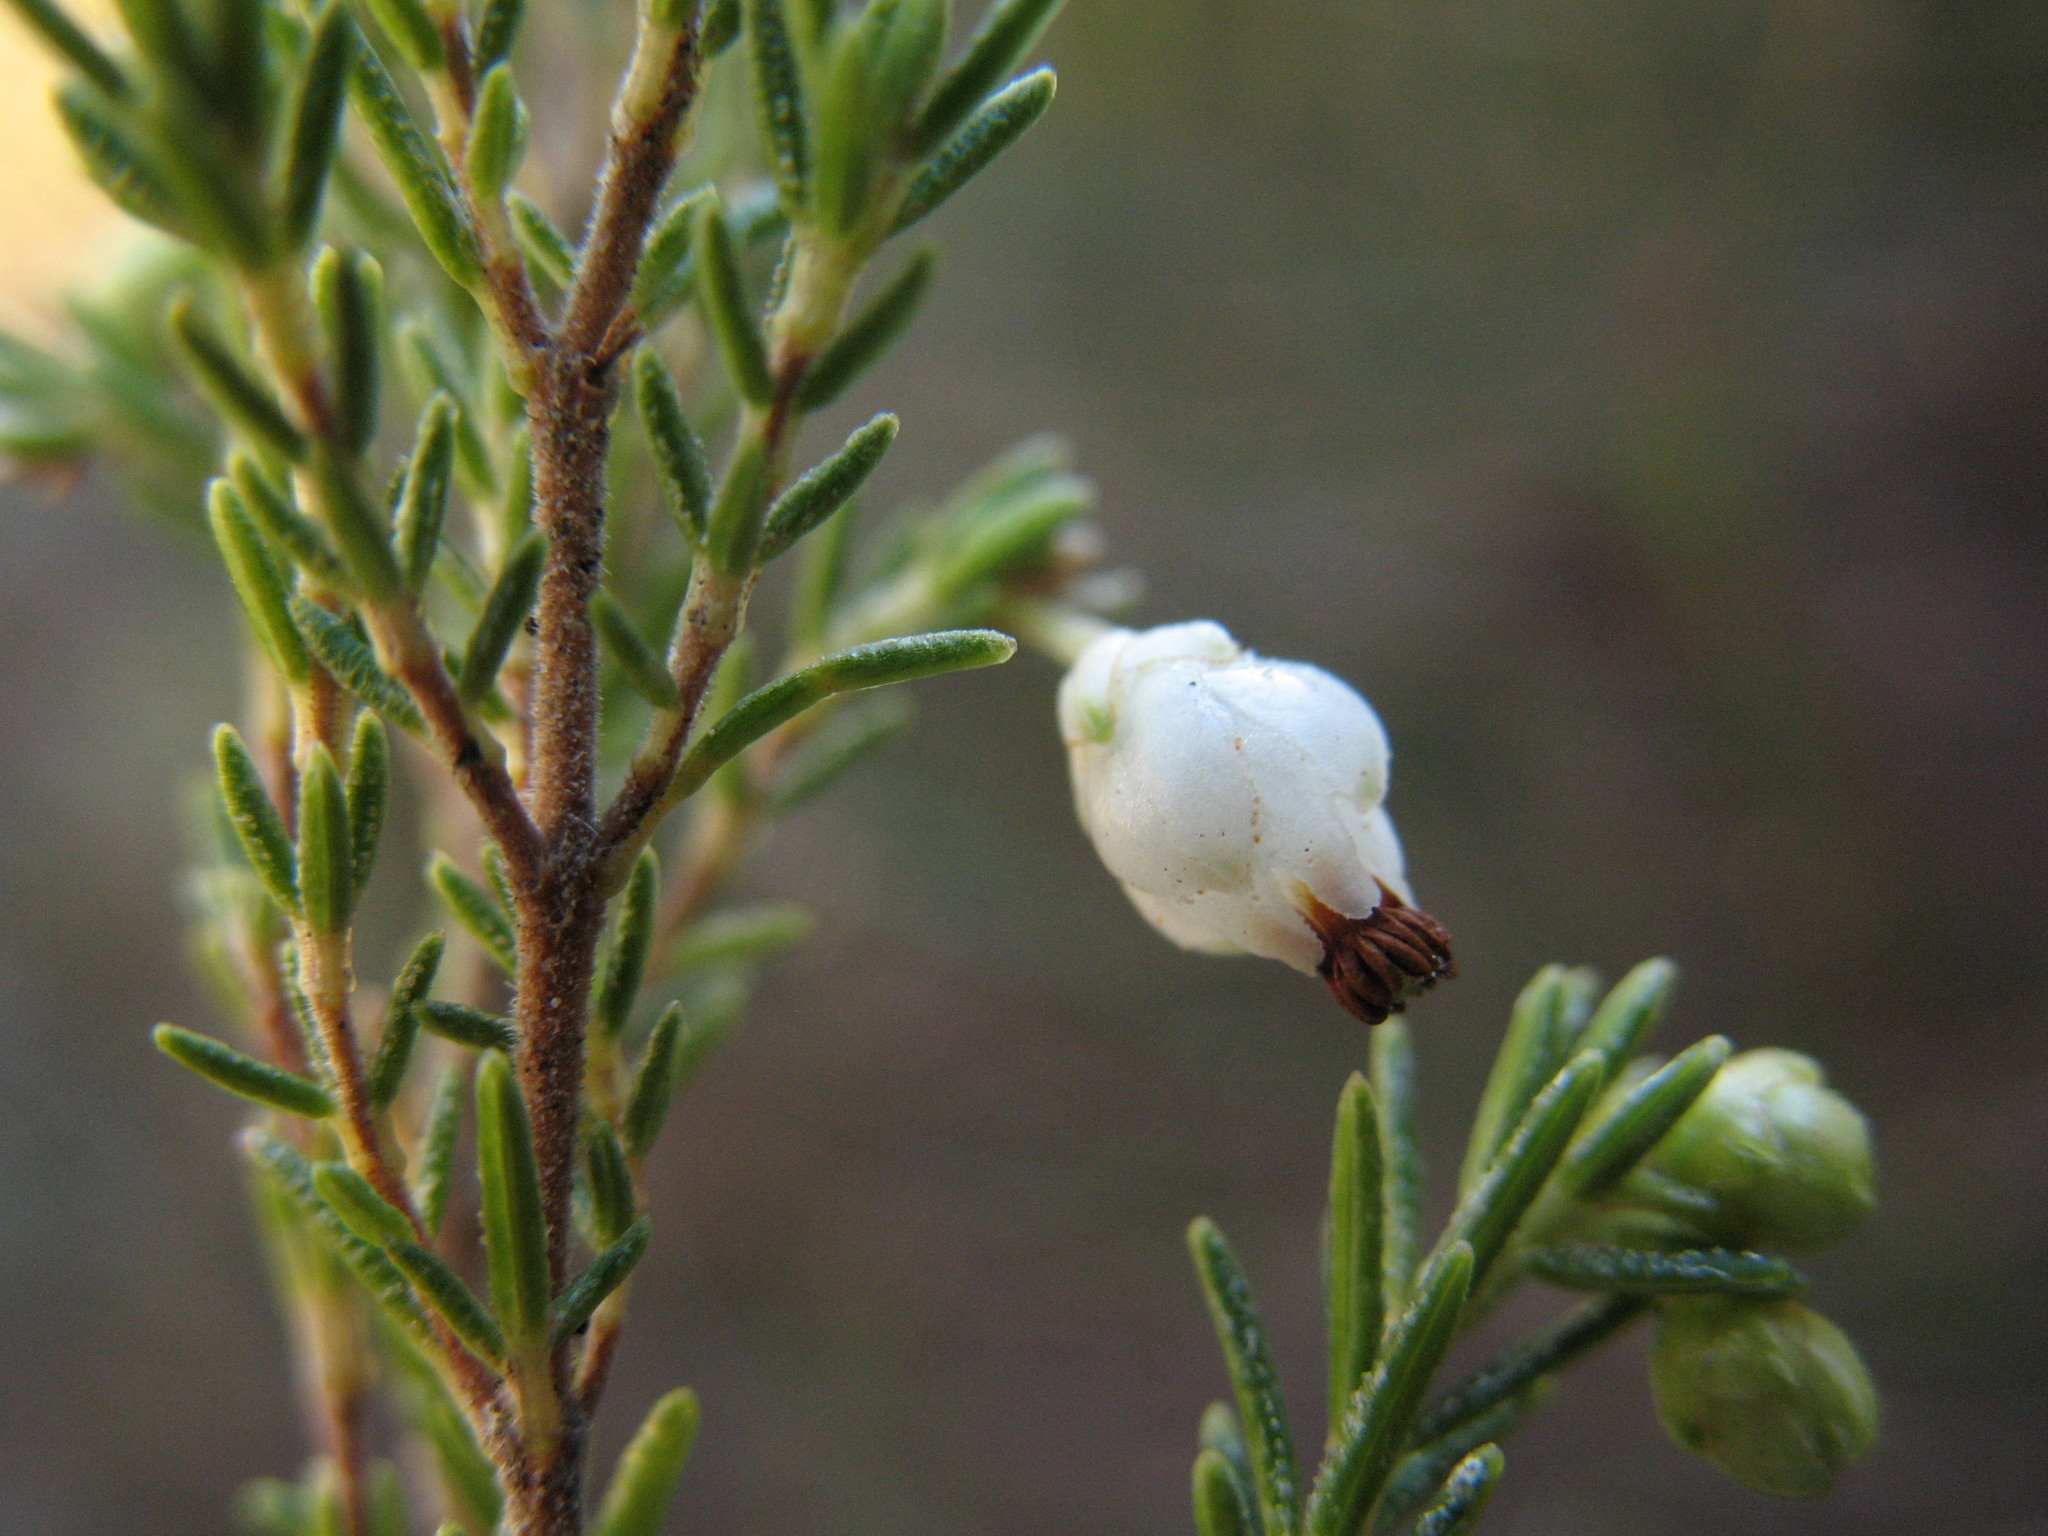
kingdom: Plantae
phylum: Tracheophyta
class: Magnoliopsida
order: Ericales
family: Ericaceae
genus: Erica
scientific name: Erica sonderiana
